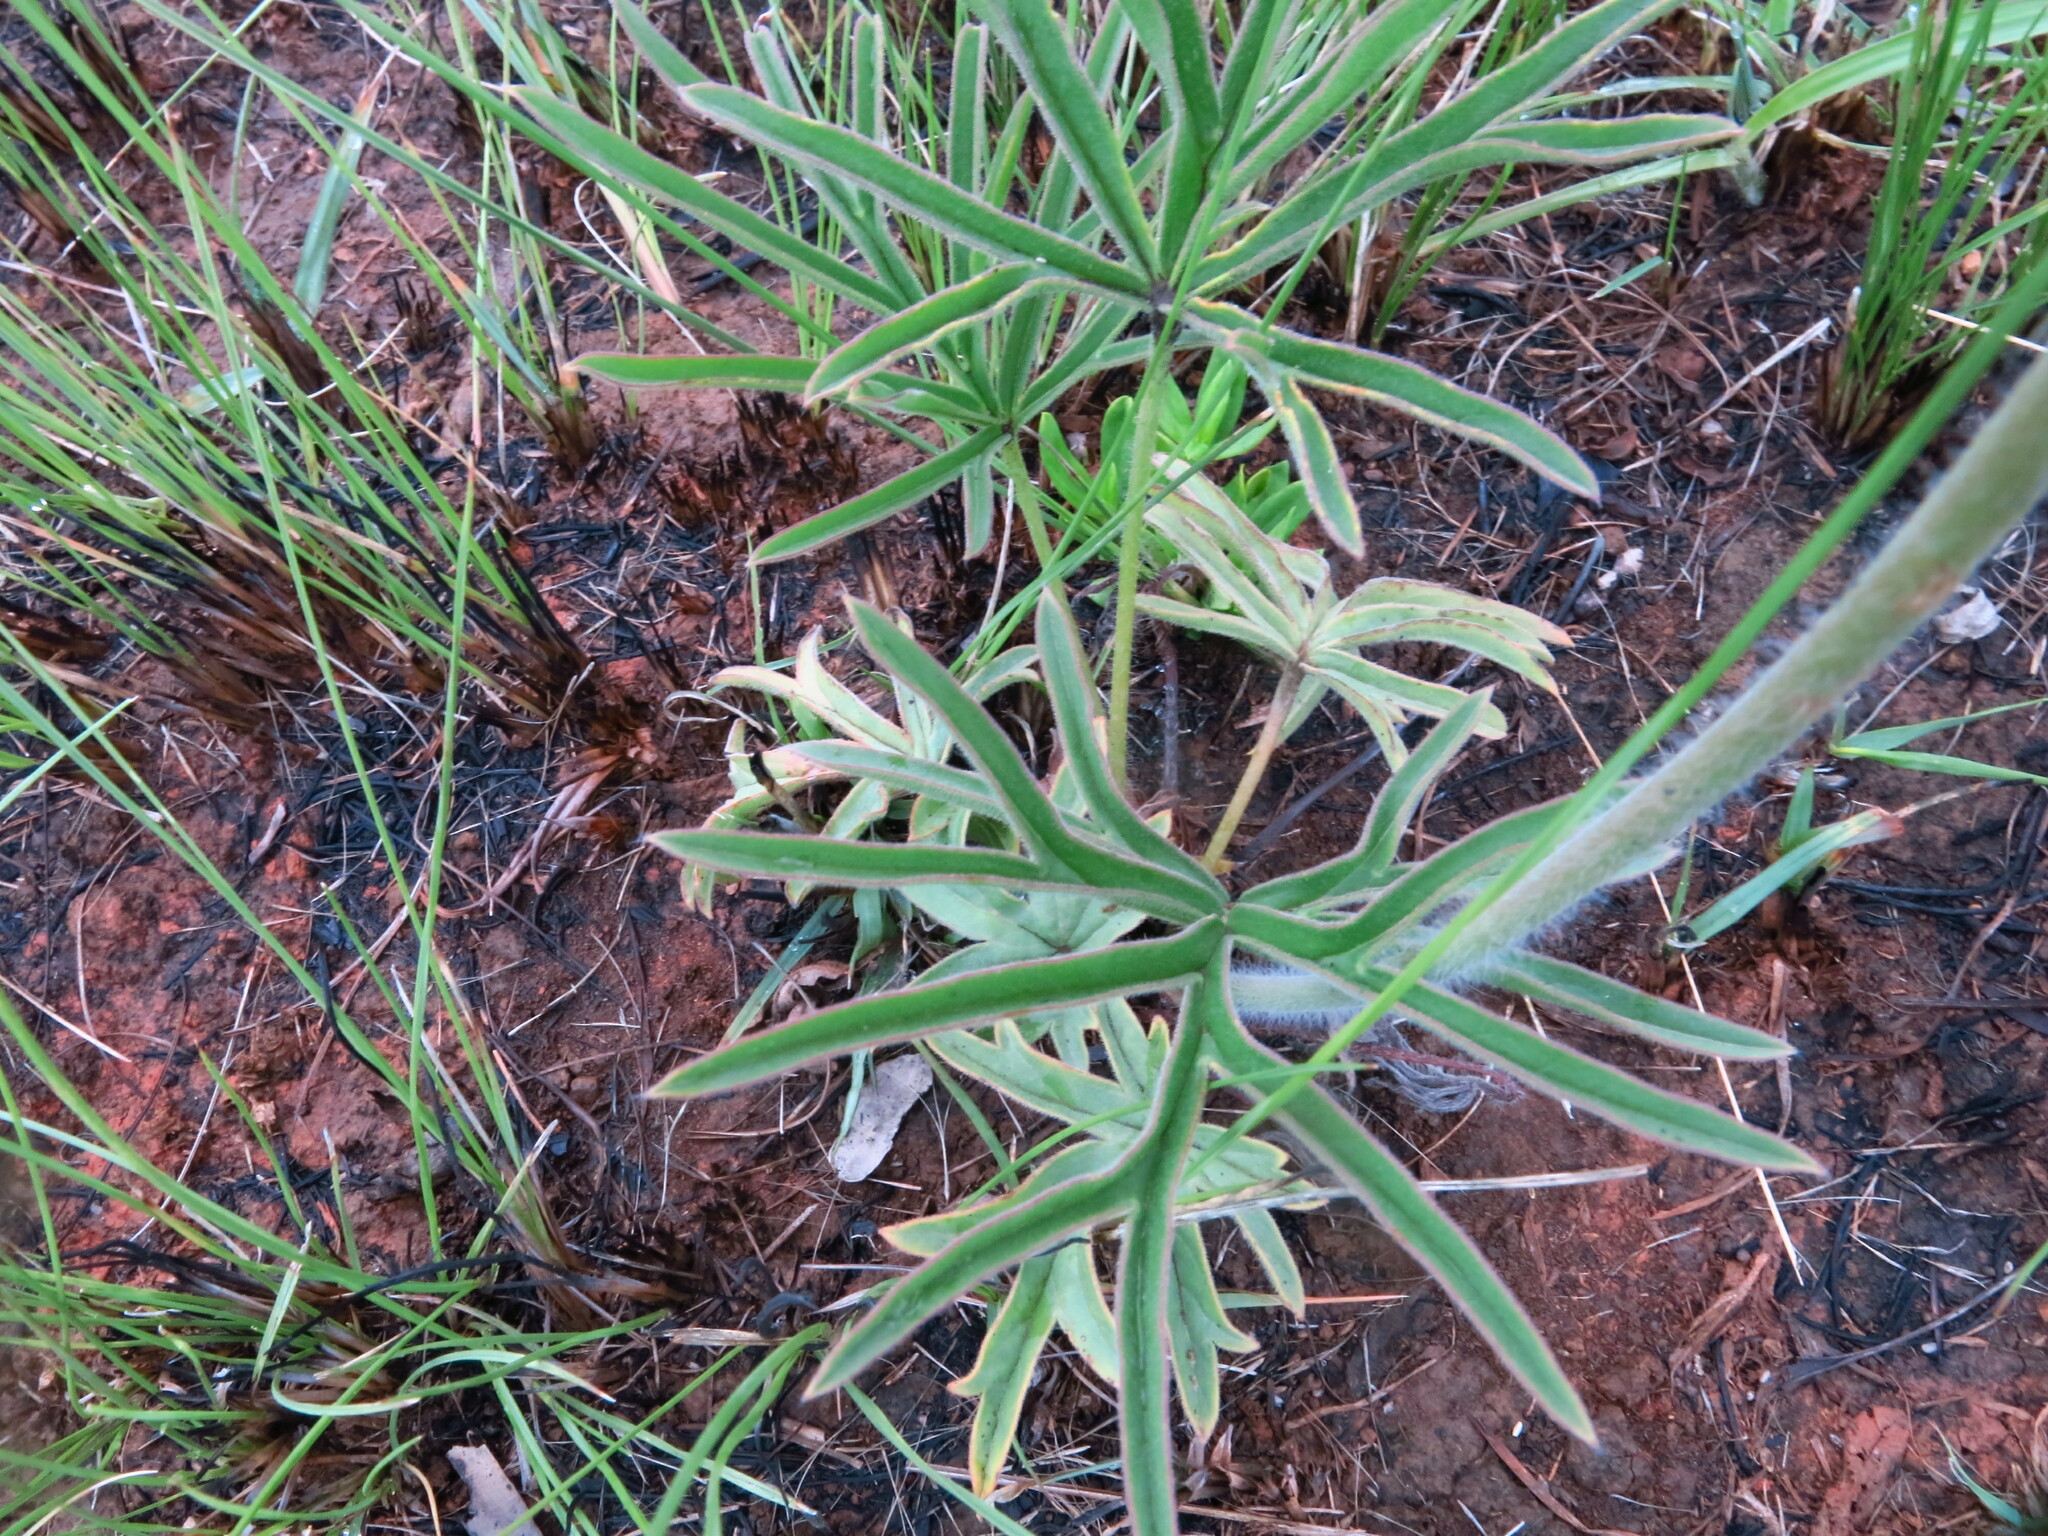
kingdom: Plantae
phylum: Tracheophyta
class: Magnoliopsida
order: Geraniales
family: Geraniaceae
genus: Pelargonium
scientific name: Pelargonium luridum
